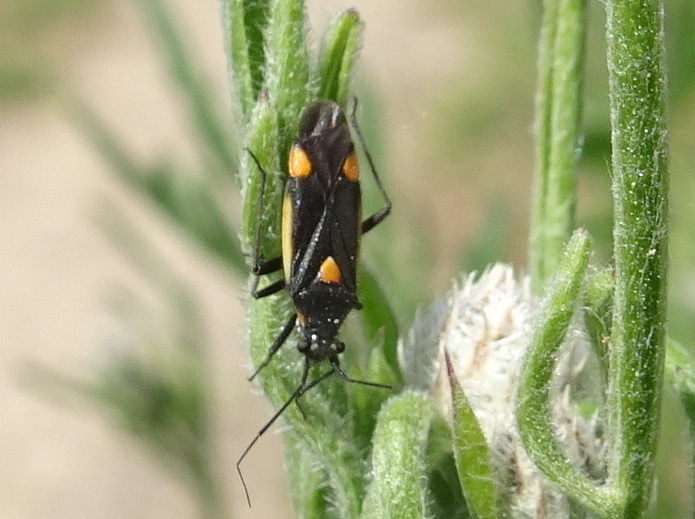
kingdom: Animalia
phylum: Arthropoda
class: Insecta
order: Hemiptera
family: Miridae
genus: Capsodes
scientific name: Capsodes gothicus
